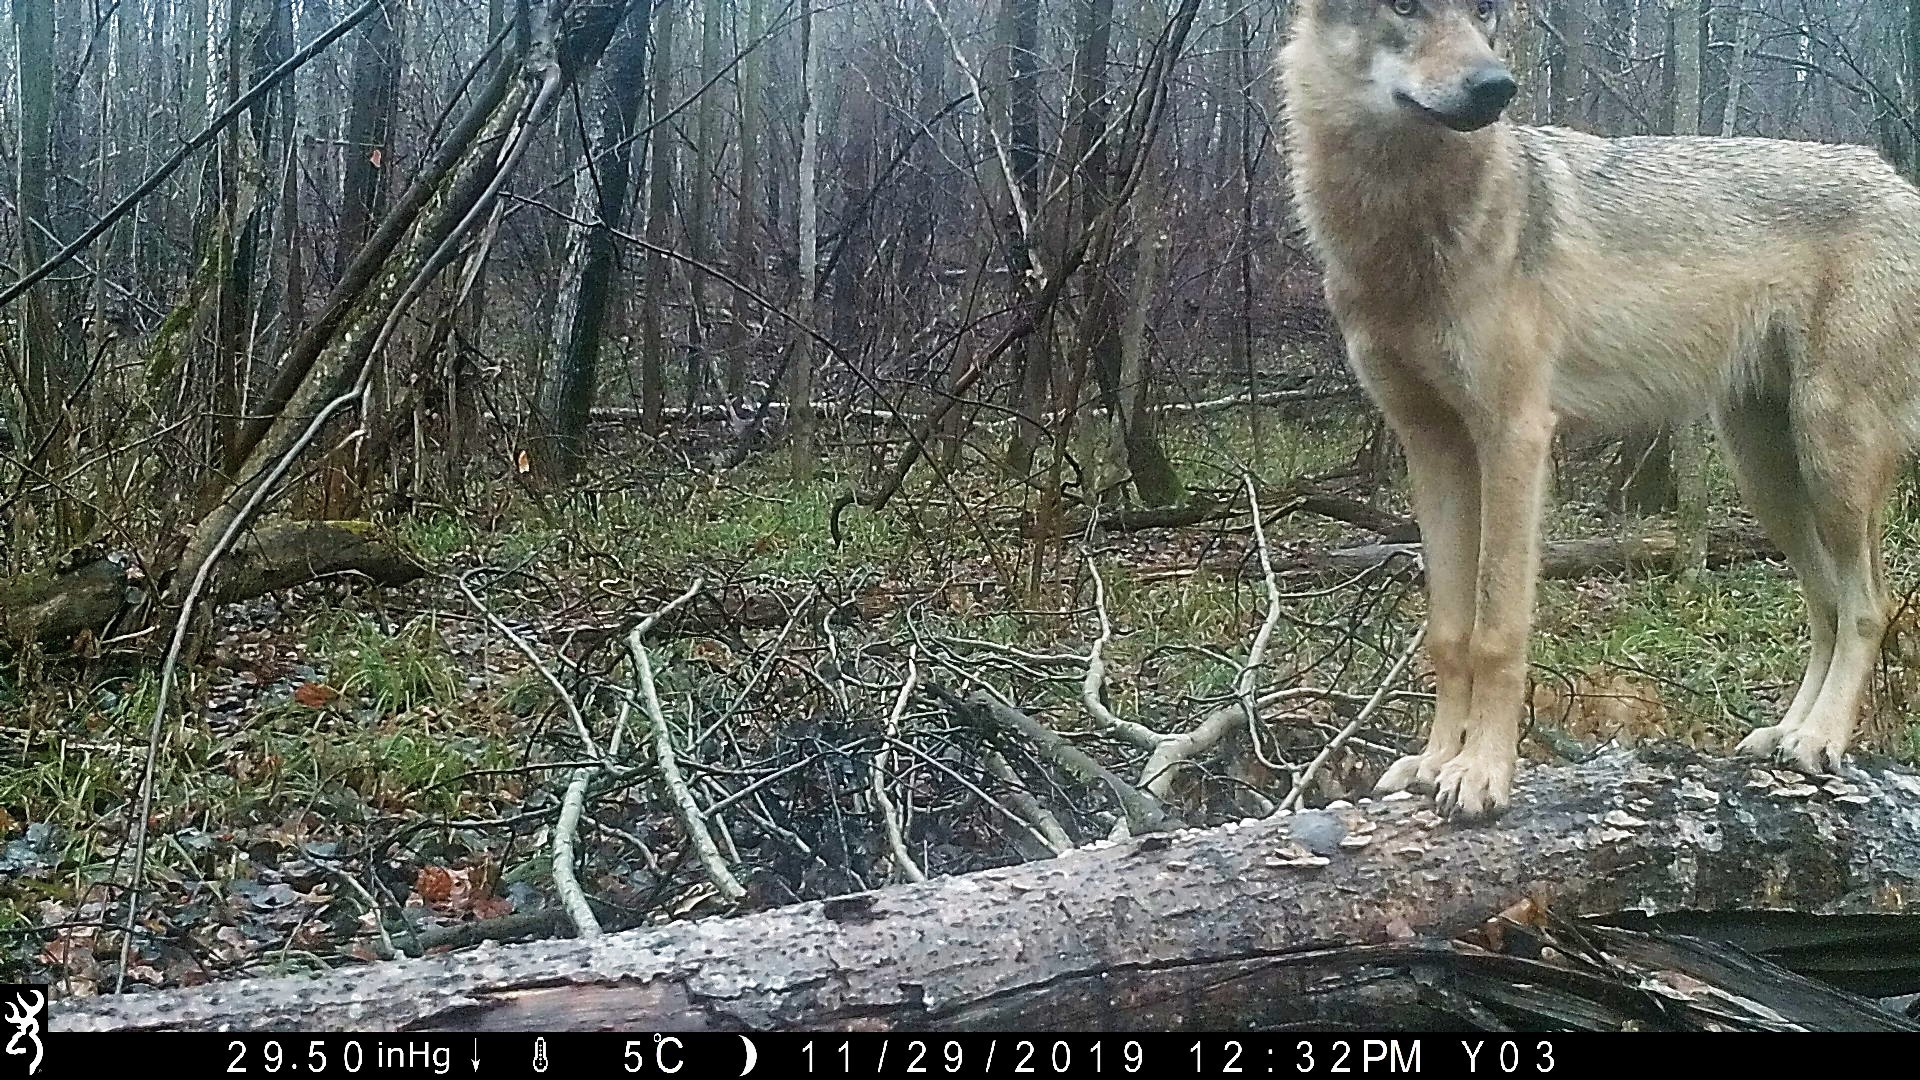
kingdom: Animalia
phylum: Chordata
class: Mammalia
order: Carnivora
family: Canidae
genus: Canis
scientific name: Canis lupus
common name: Gray wolf
